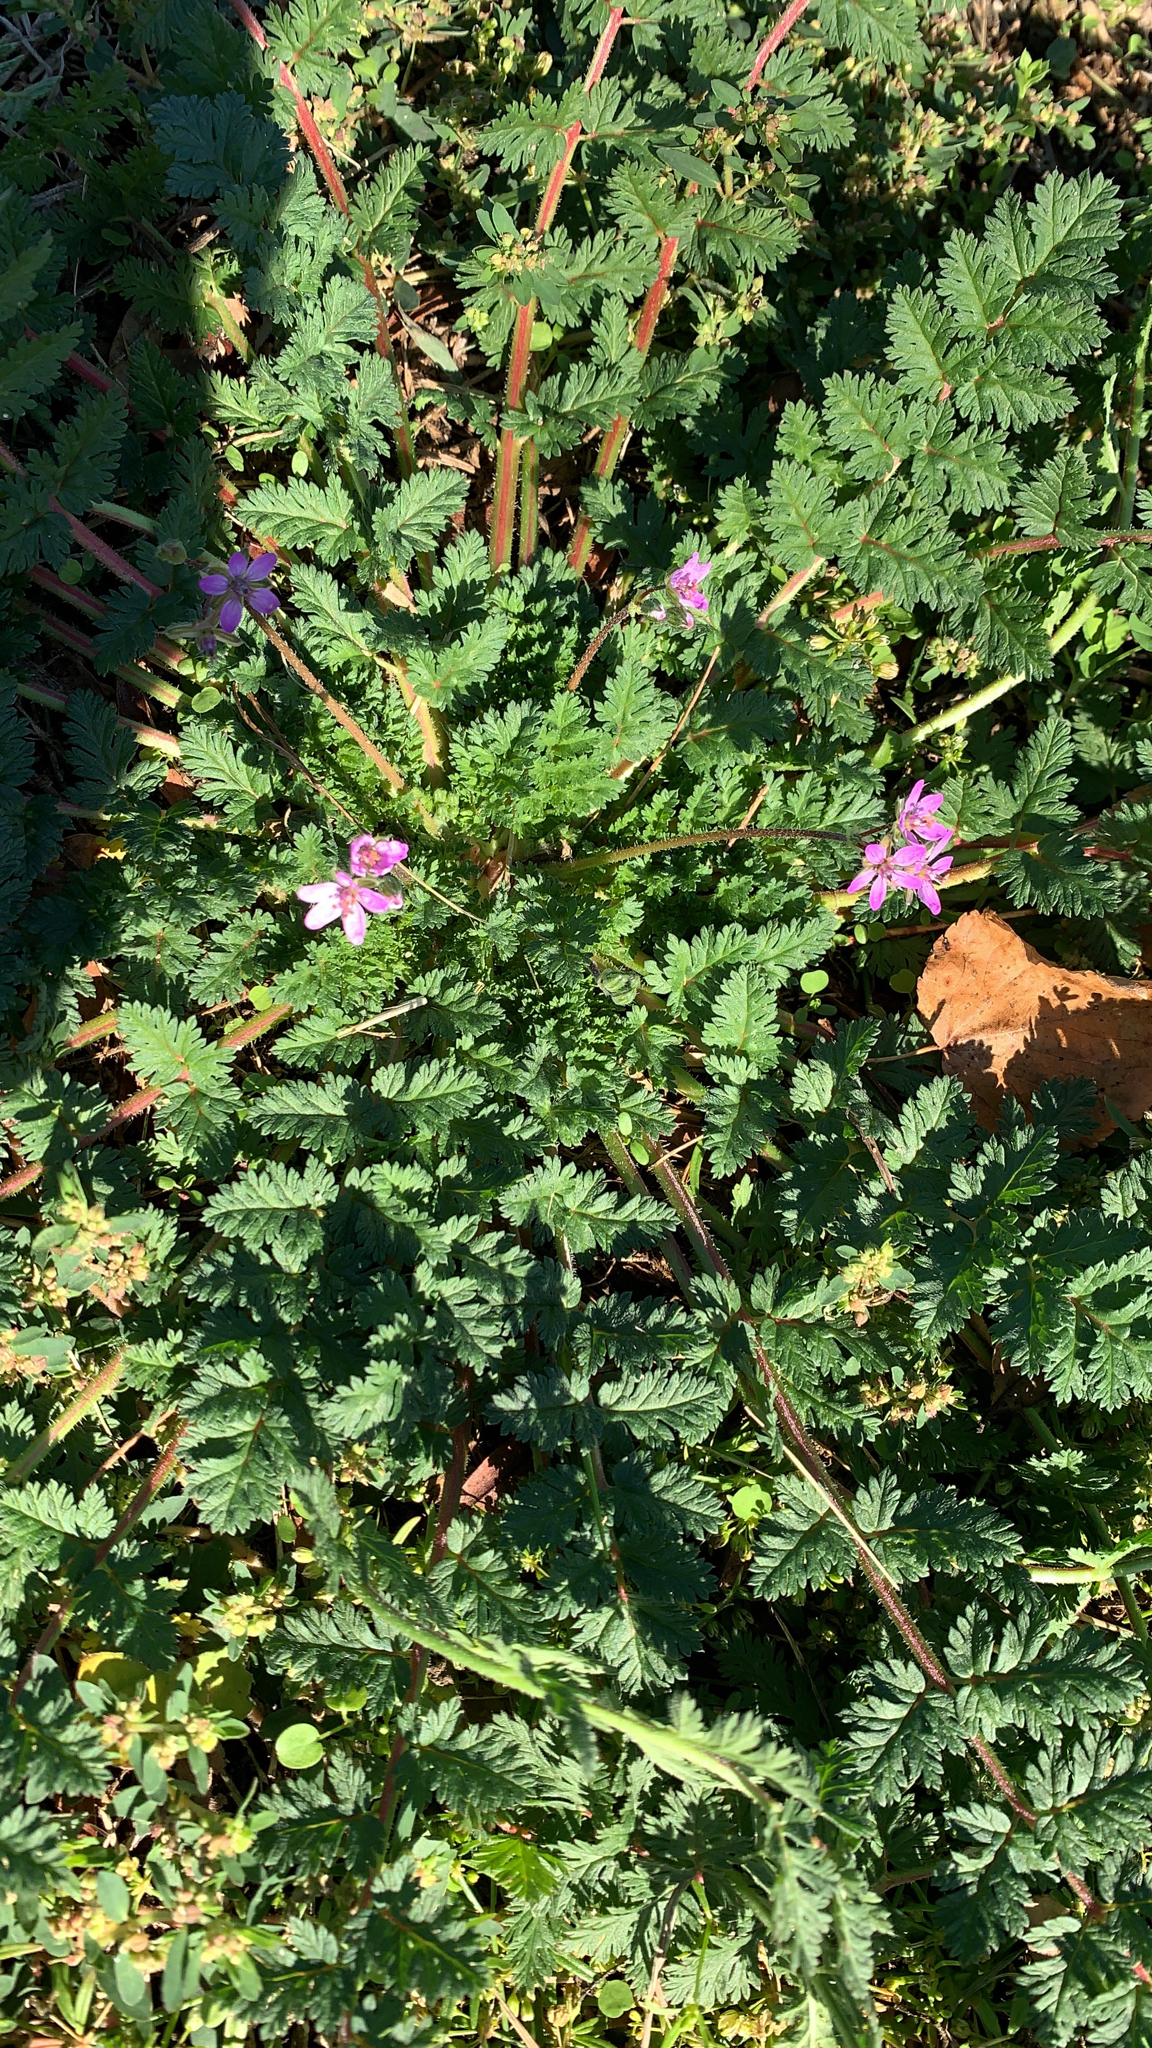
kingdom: Plantae
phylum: Tracheophyta
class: Magnoliopsida
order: Geraniales
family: Geraniaceae
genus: Erodium
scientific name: Erodium cicutarium
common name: Common stork's-bill
